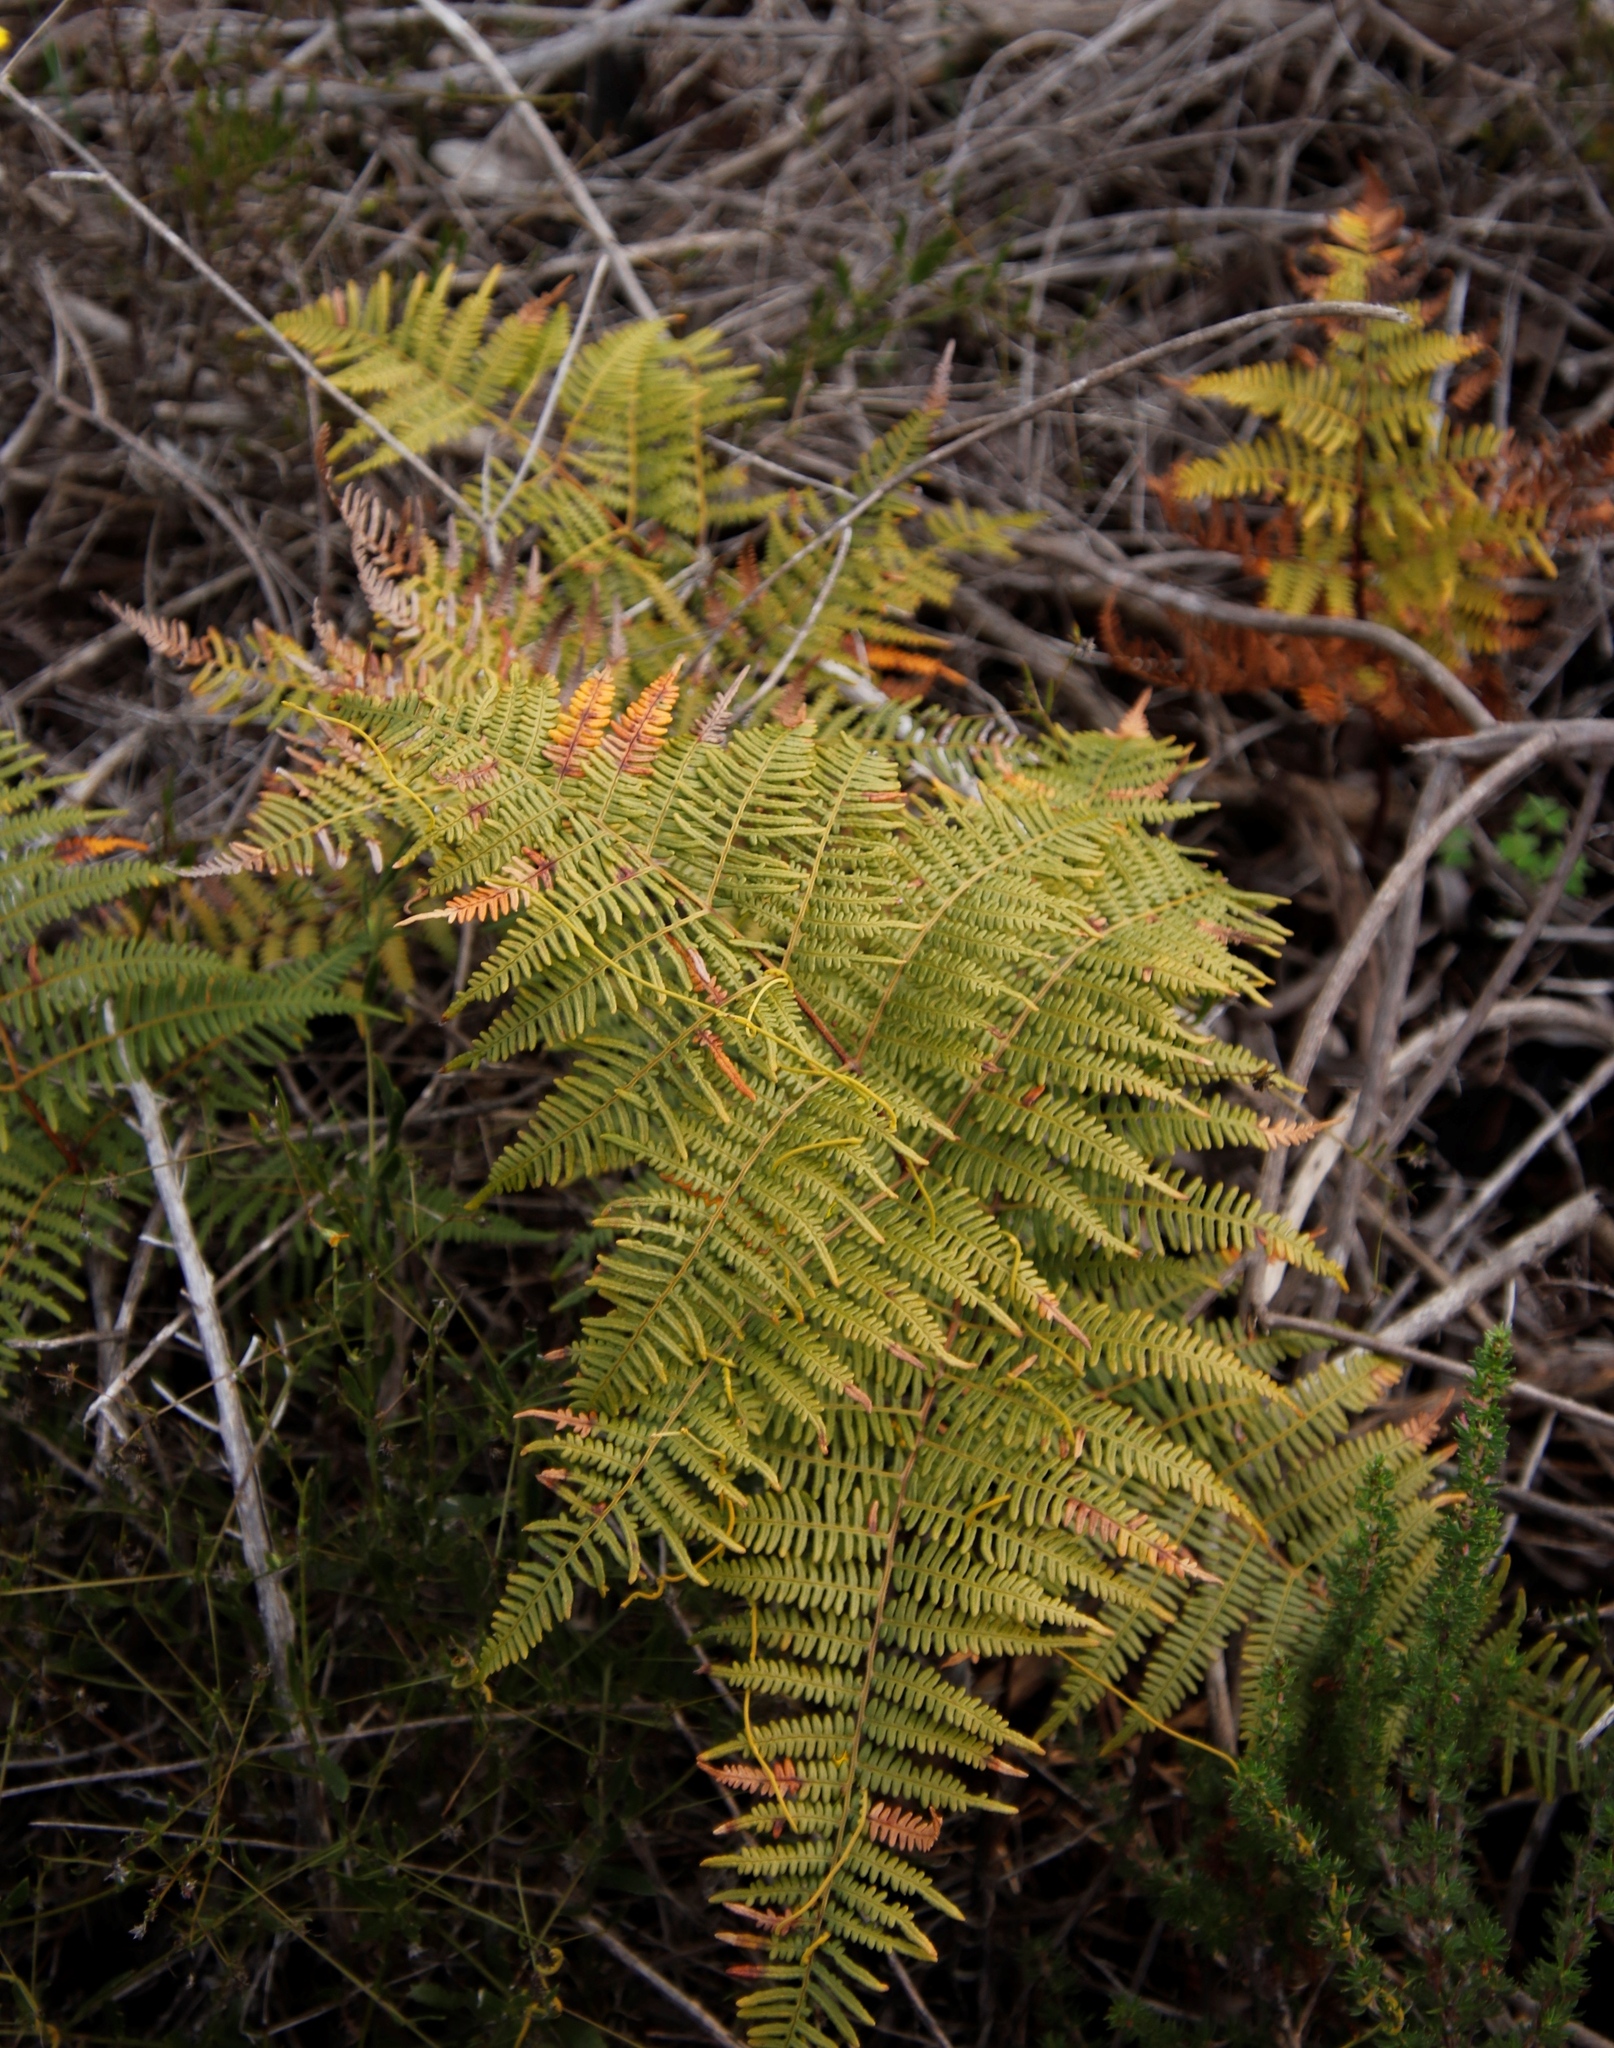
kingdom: Plantae
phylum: Tracheophyta
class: Polypodiopsida
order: Polypodiales
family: Dennstaedtiaceae
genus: Pteridium
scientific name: Pteridium aquilinum
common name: Bracken
